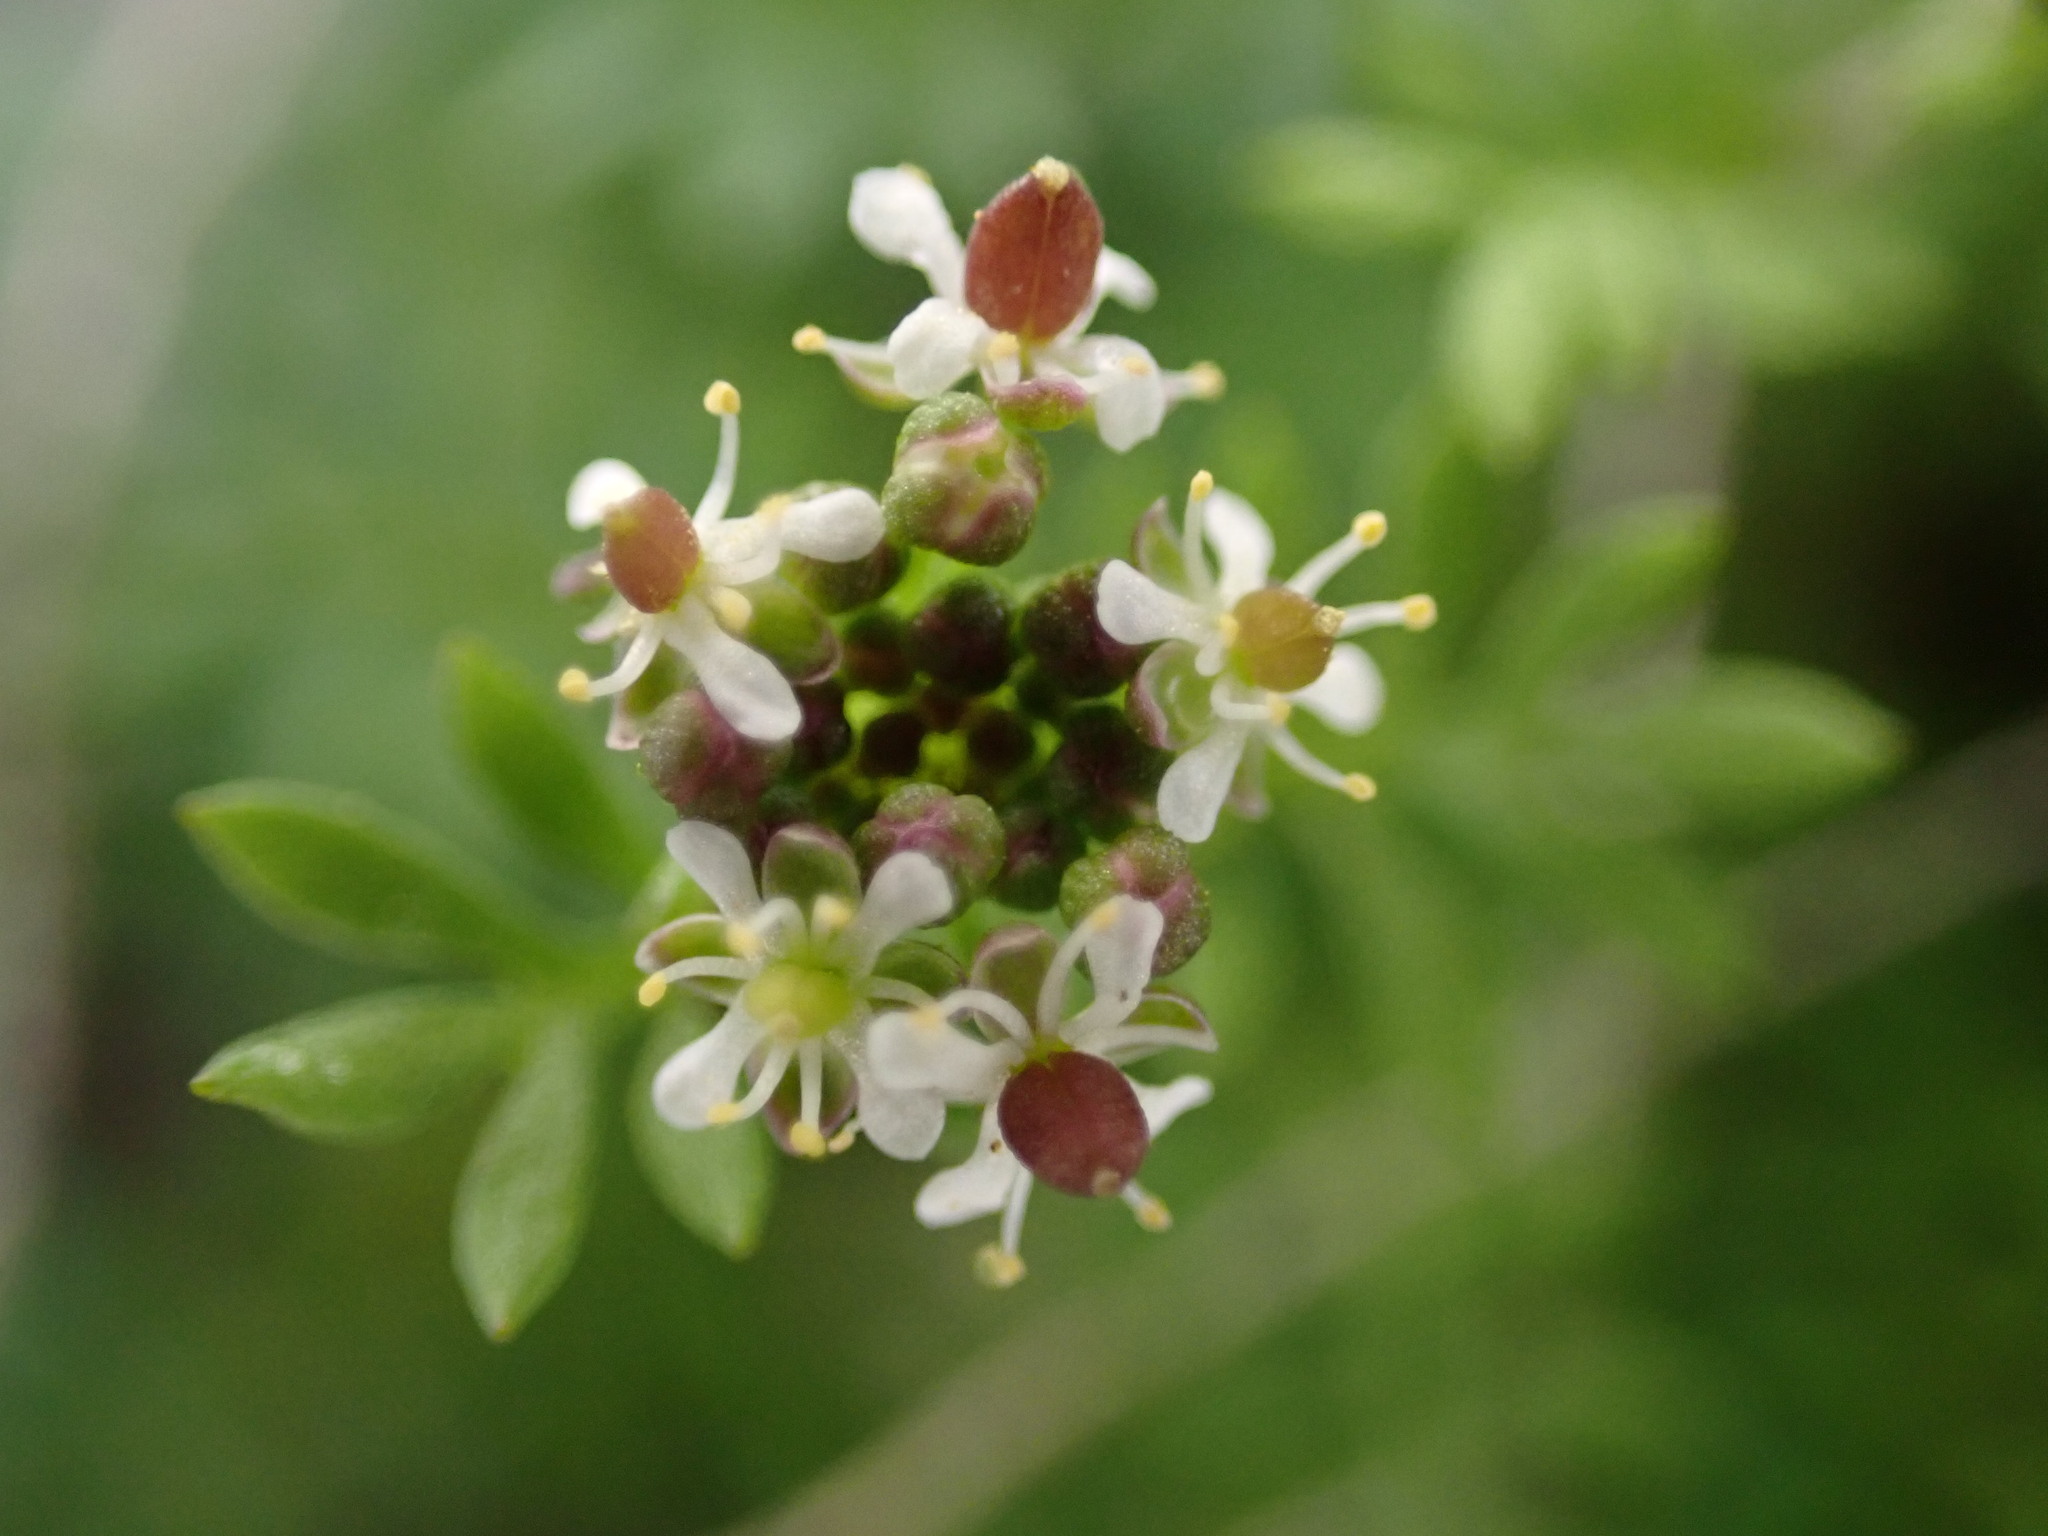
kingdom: Plantae
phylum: Tracheophyta
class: Magnoliopsida
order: Brassicales
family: Brassicaceae
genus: Hornungia
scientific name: Hornungia petraea
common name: Hutchinsia
